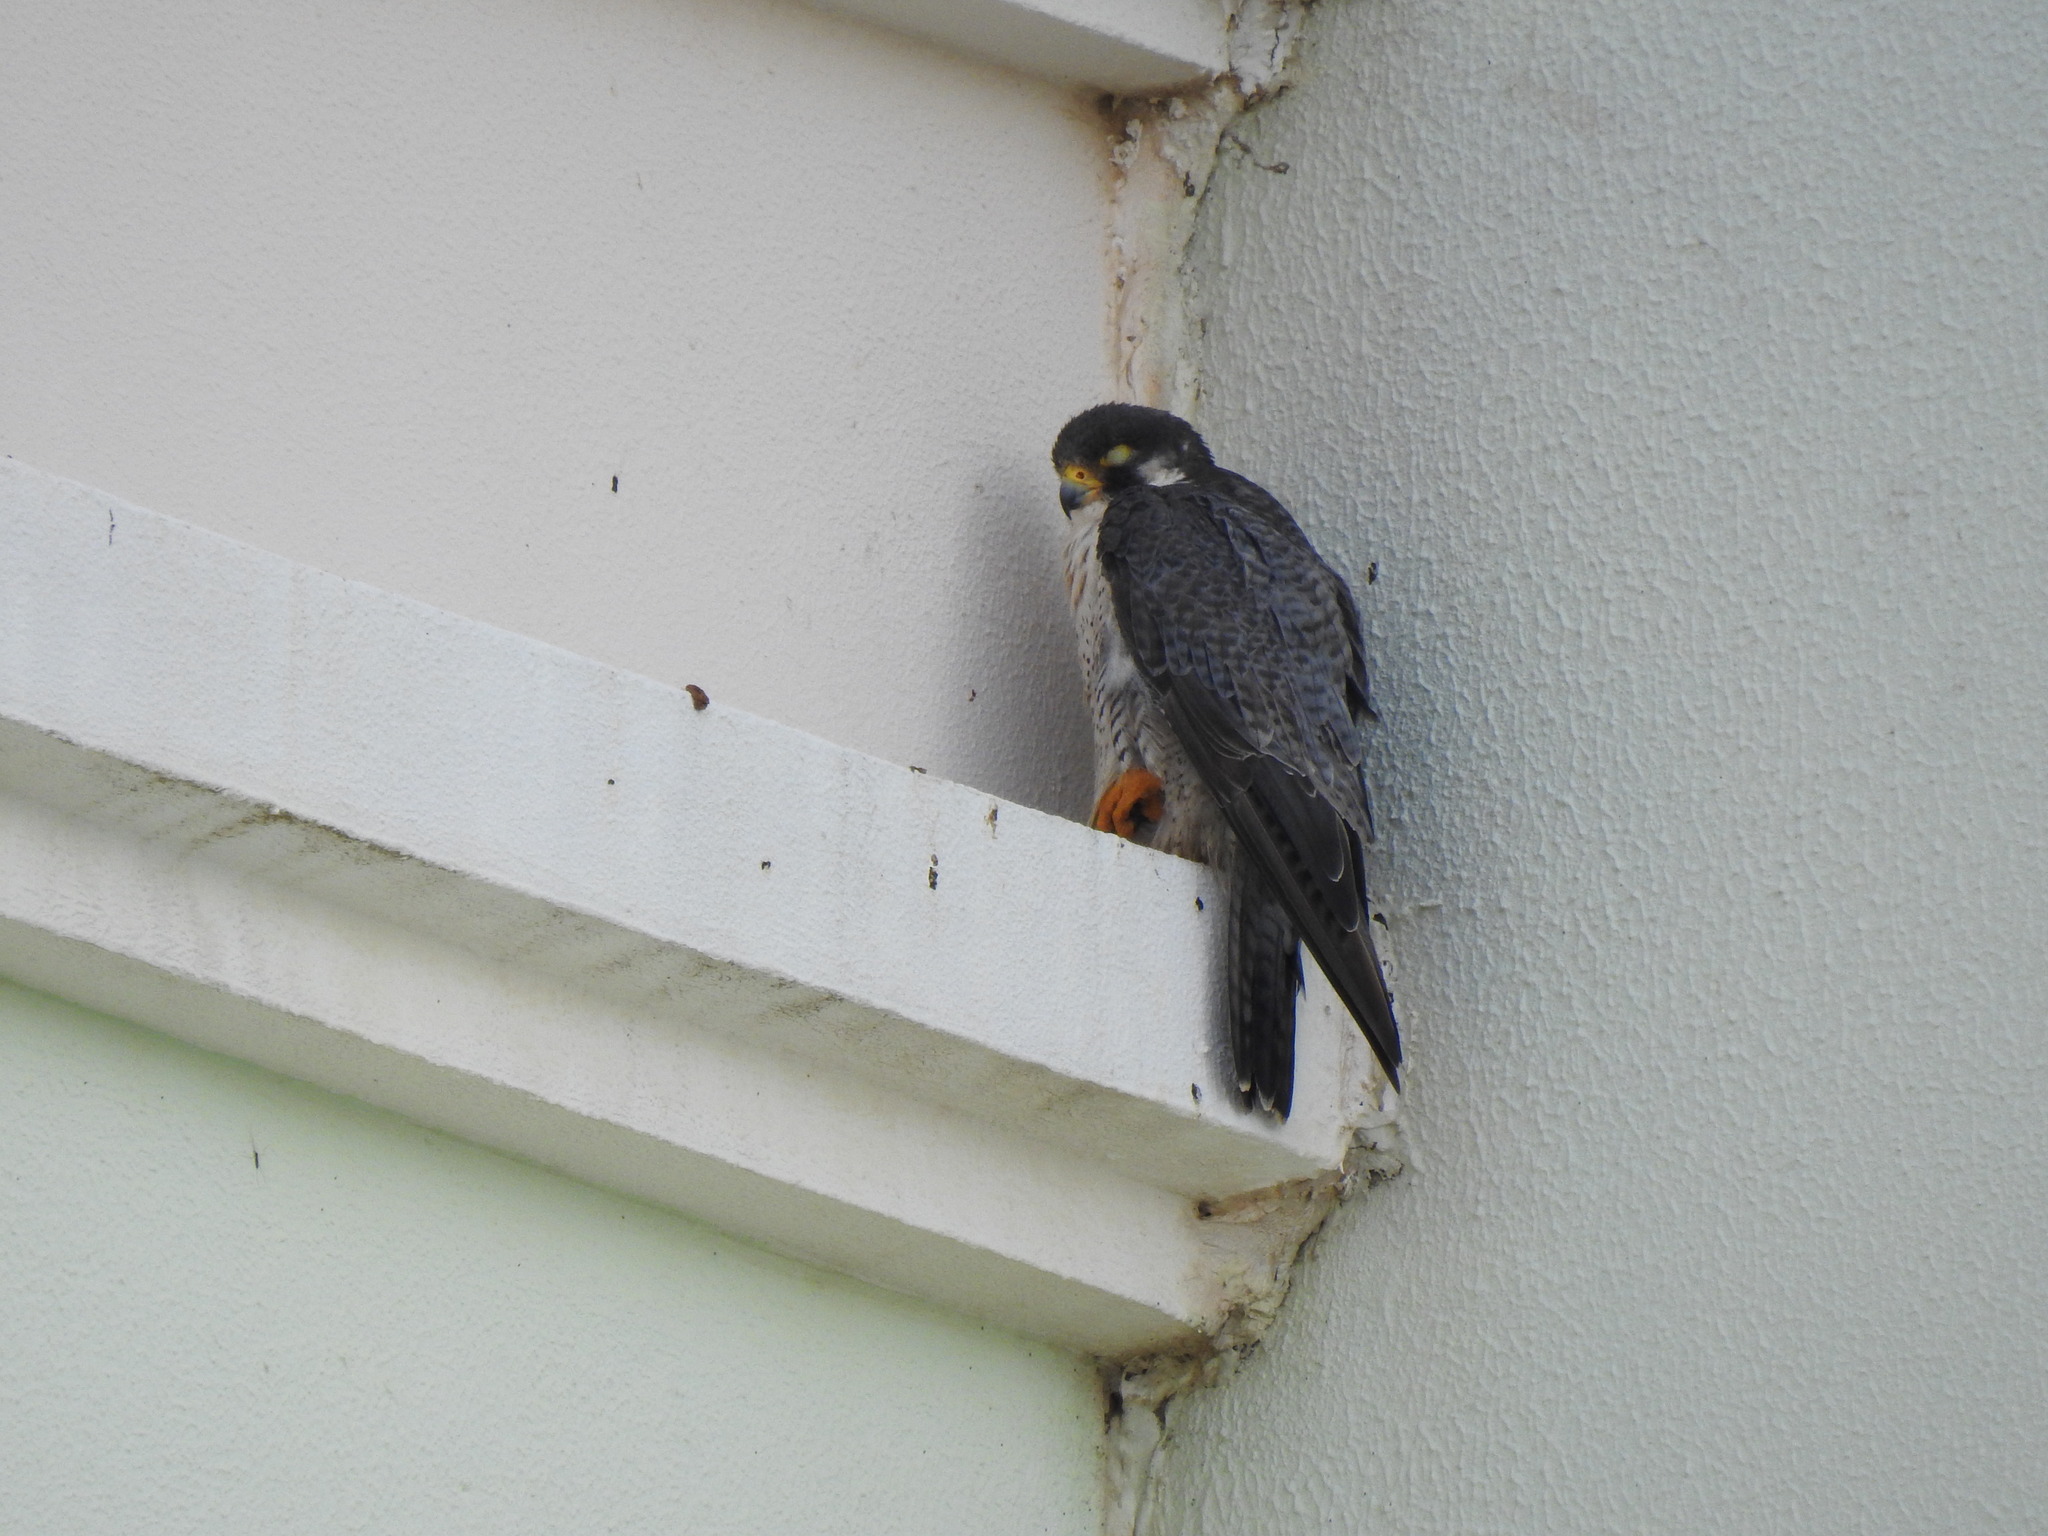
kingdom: Animalia
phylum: Chordata
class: Aves
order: Falconiformes
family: Falconidae
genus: Falco
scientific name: Falco peregrinus
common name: Peregrine falcon
